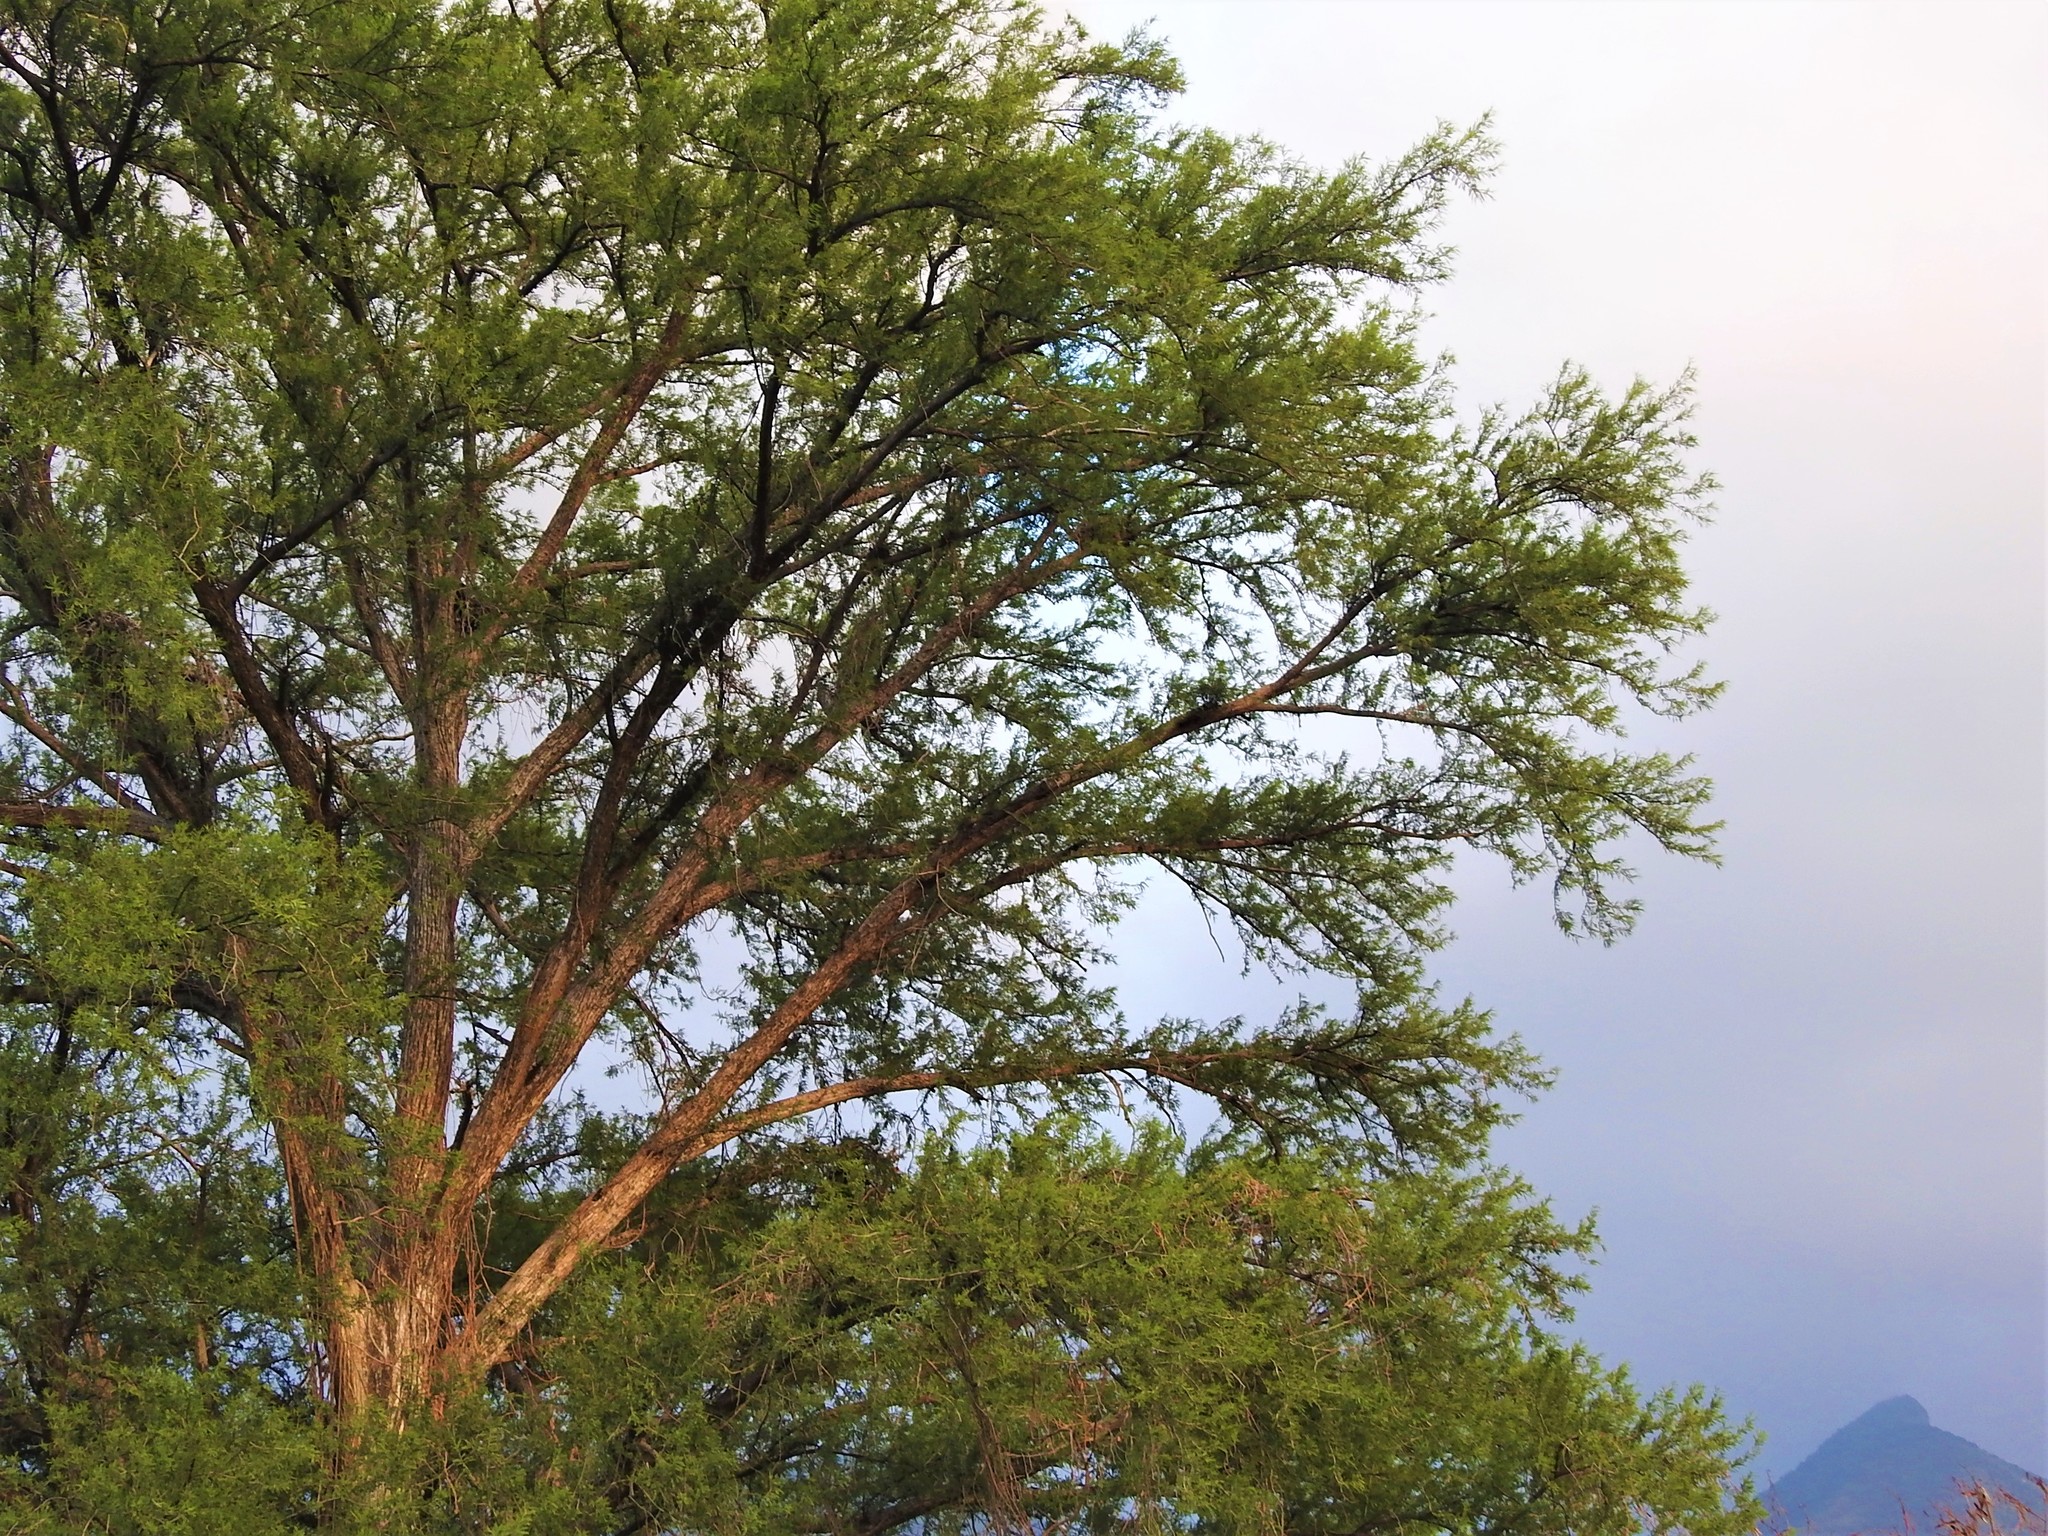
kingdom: Plantae
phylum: Tracheophyta
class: Pinopsida
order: Pinales
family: Cupressaceae
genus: Taxodium
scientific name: Taxodium mucronatum
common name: Montezume bald cypress
